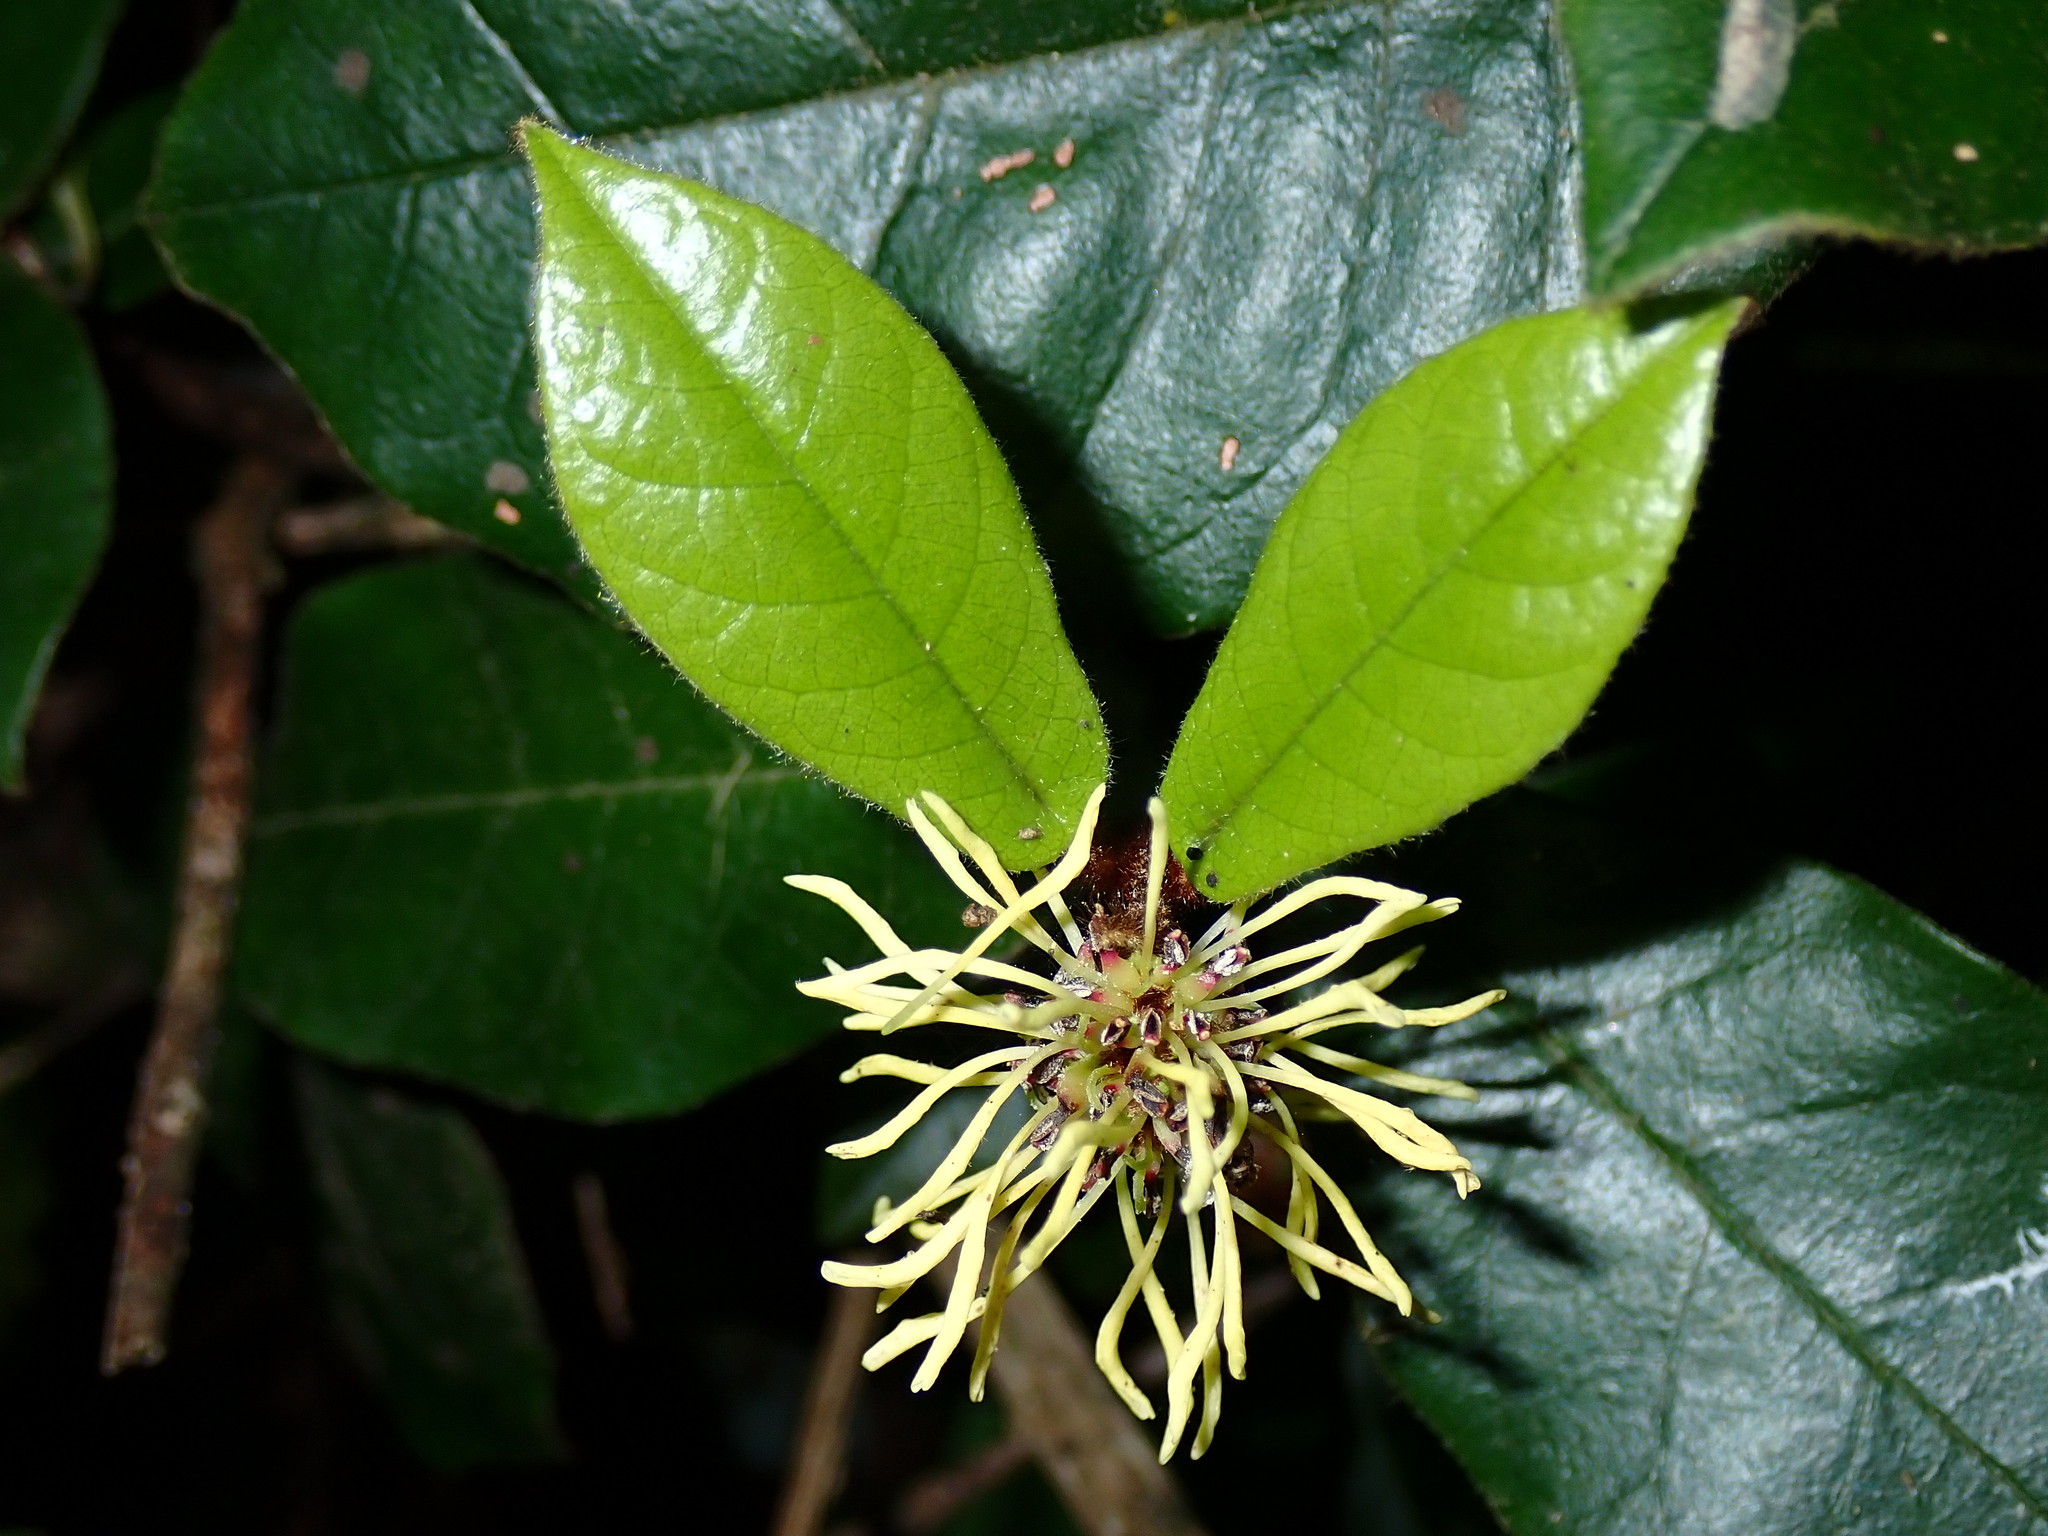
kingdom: Plantae
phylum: Tracheophyta
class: Magnoliopsida
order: Saxifragales
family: Hamamelidaceae
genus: Trichocladus
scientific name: Trichocladus crinitus
